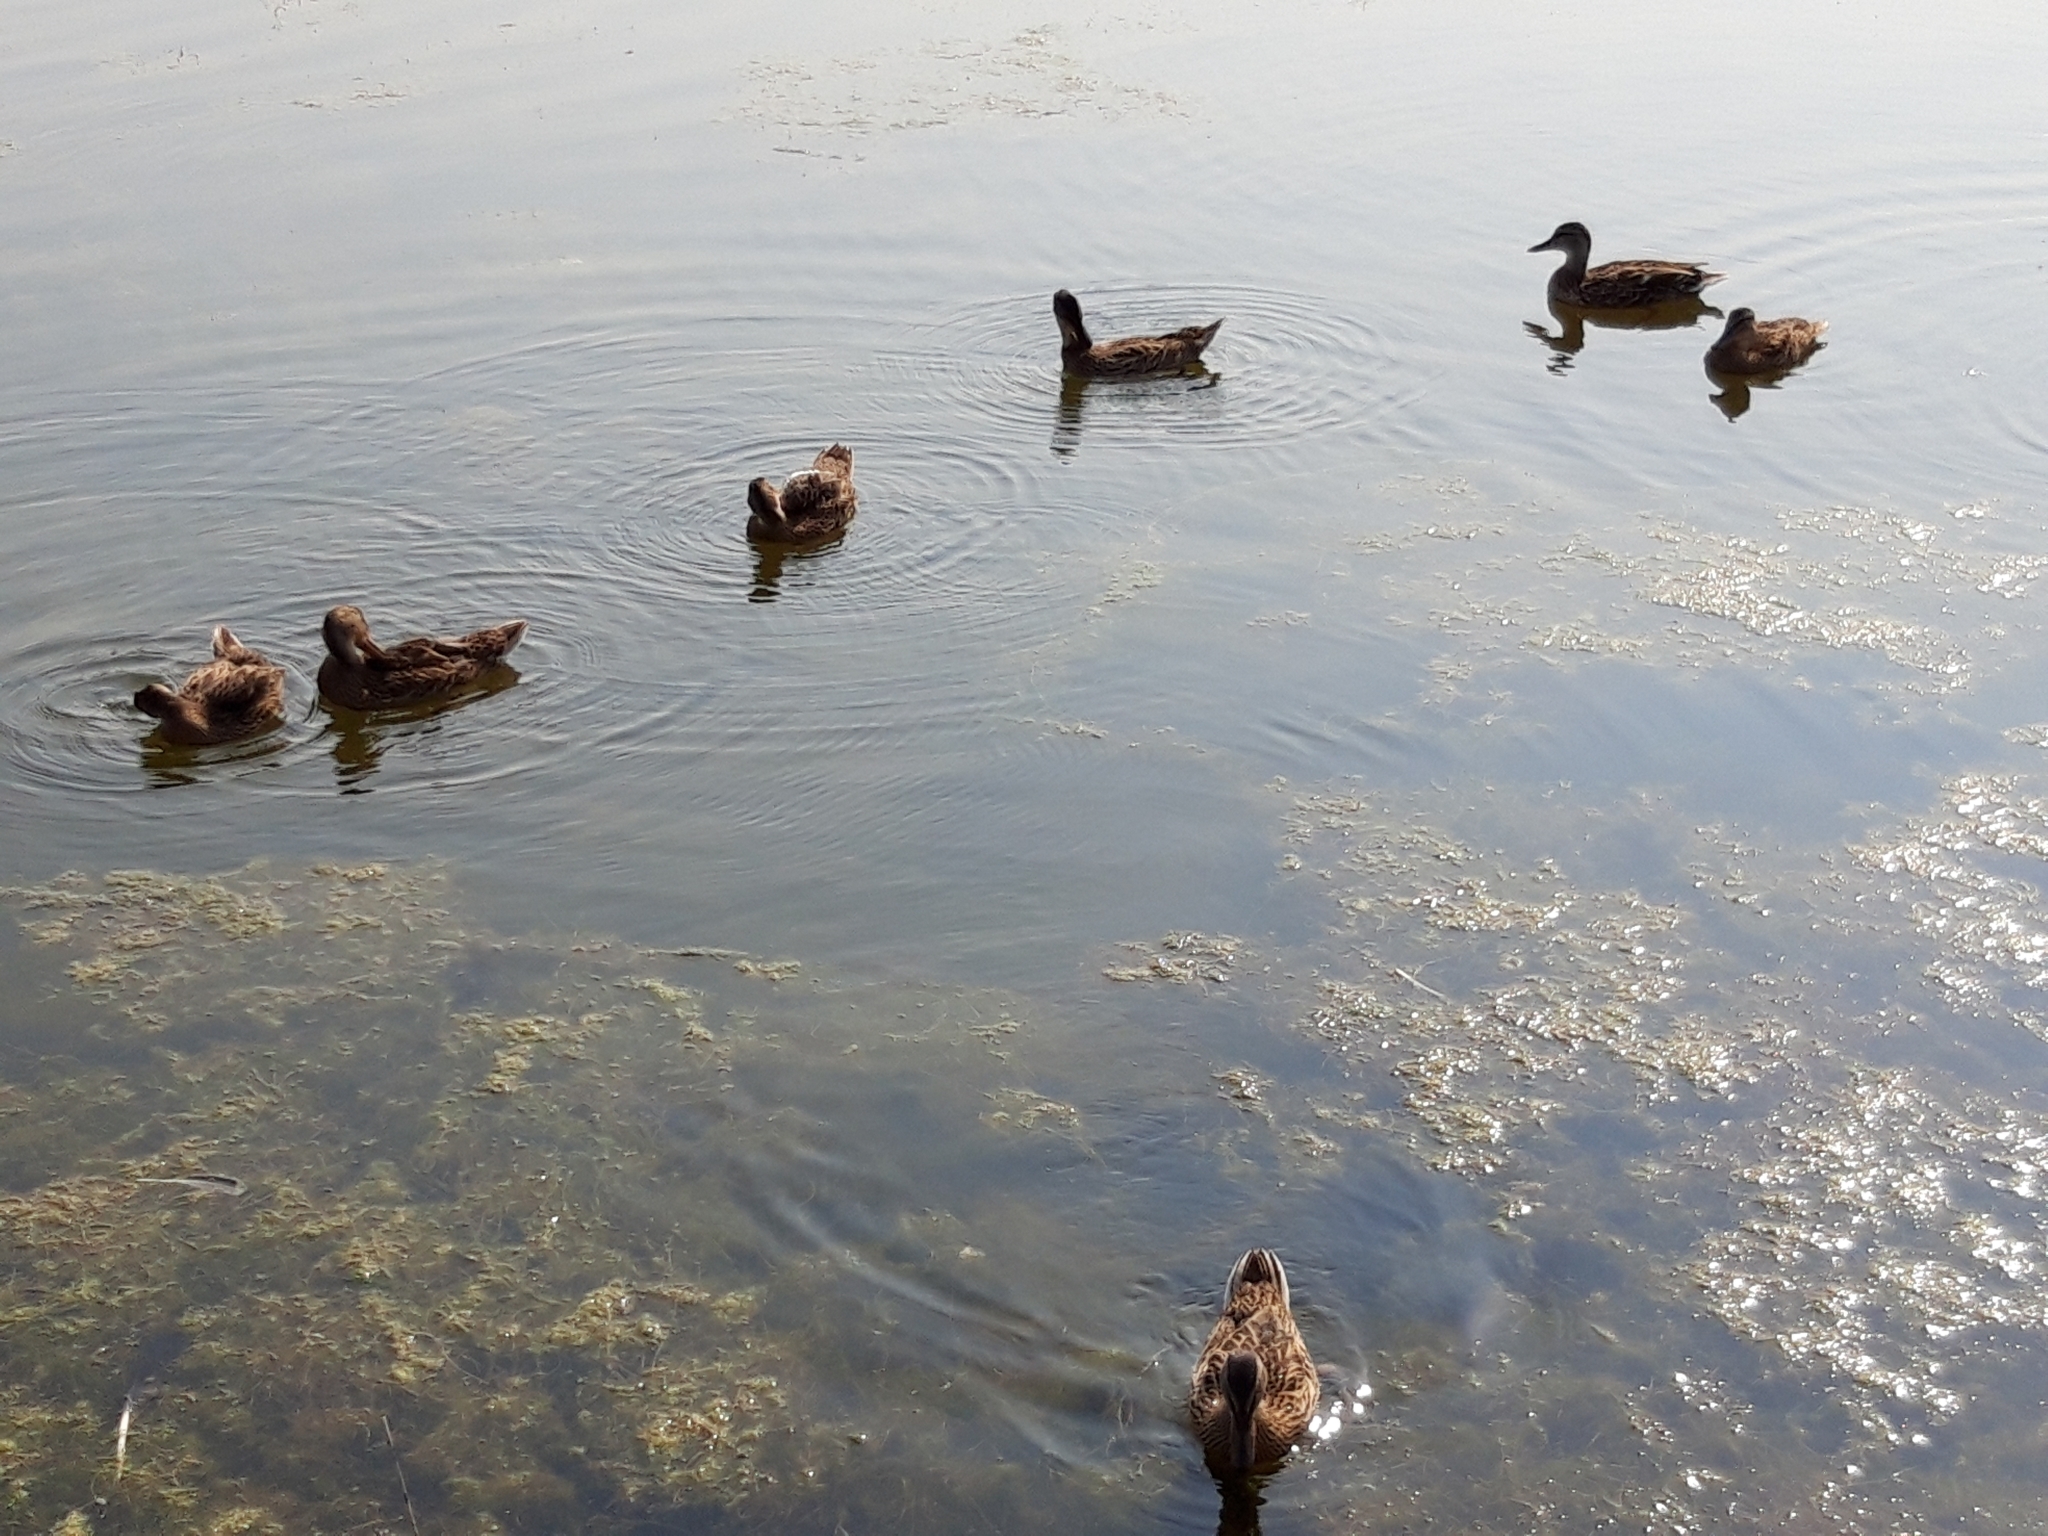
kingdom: Animalia
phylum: Chordata
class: Aves
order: Anseriformes
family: Anatidae
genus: Anas
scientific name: Anas platyrhynchos
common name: Mallard
